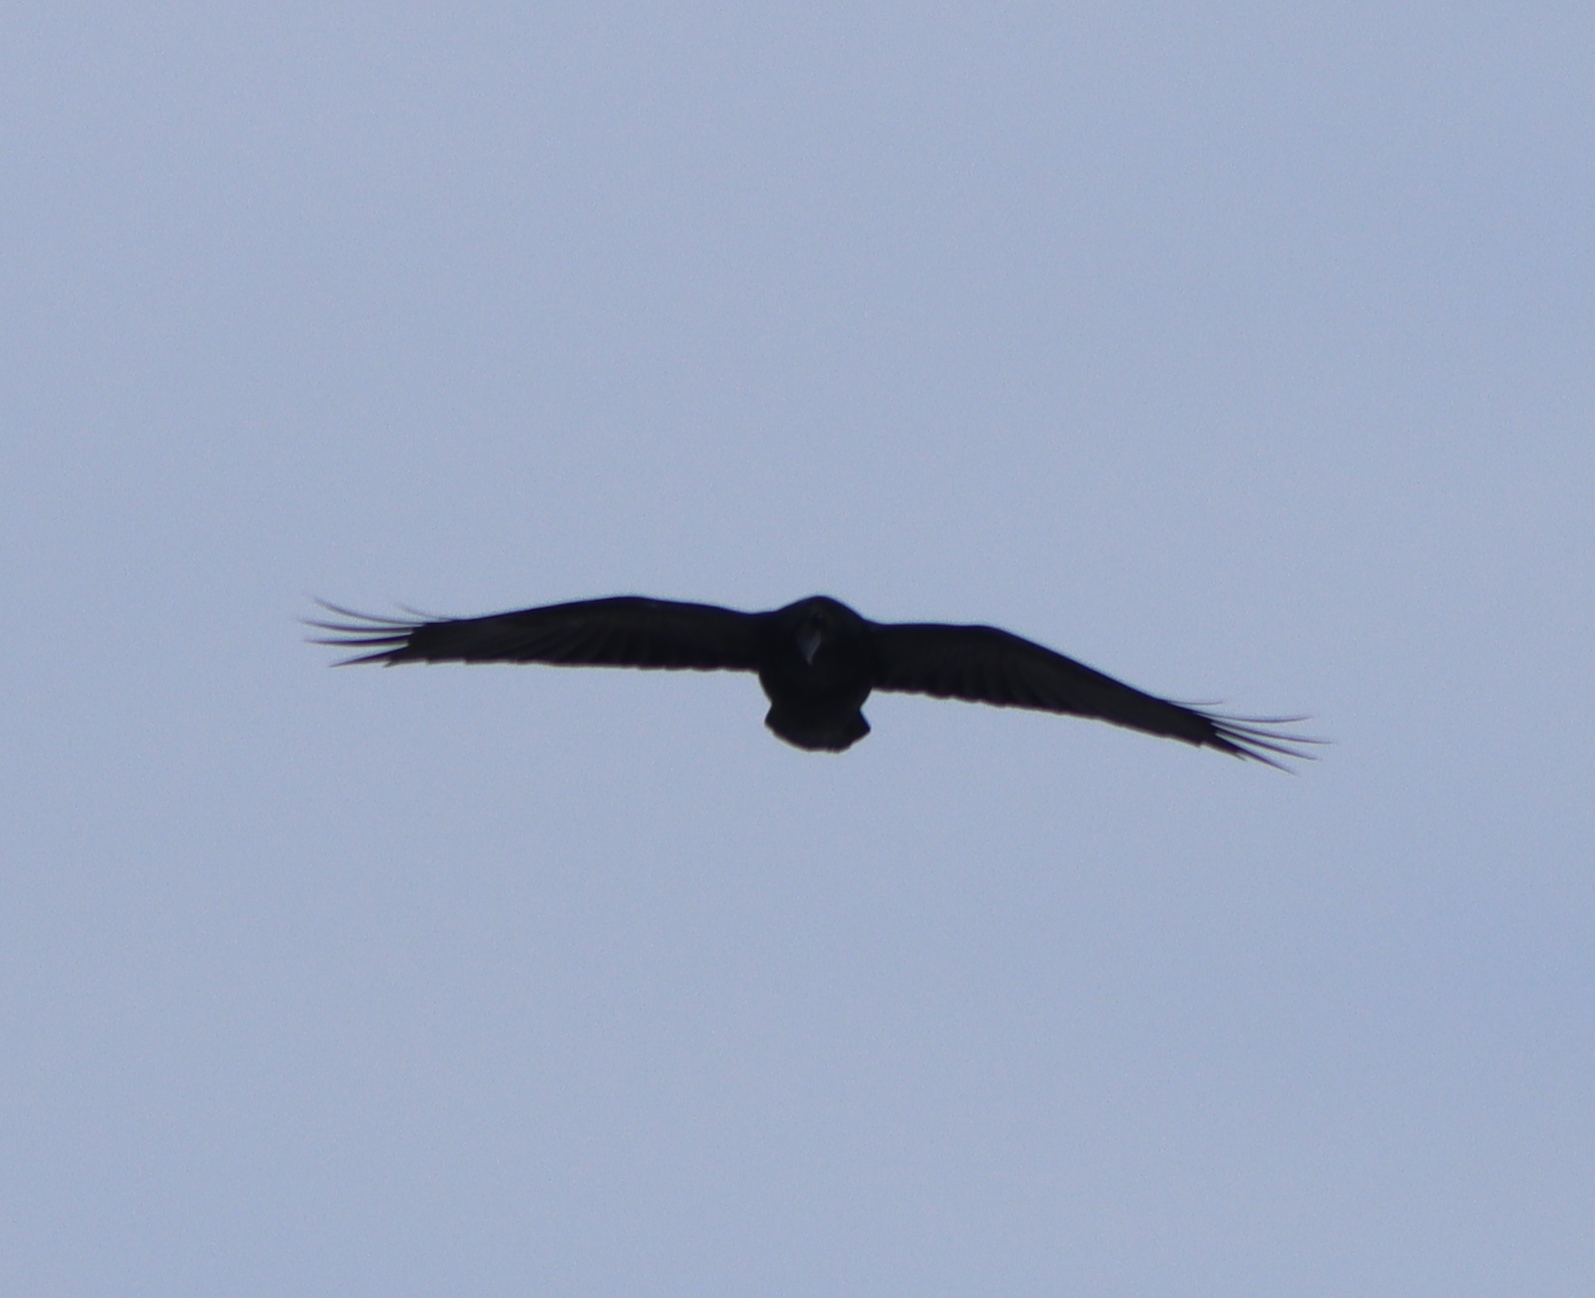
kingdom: Animalia
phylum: Chordata
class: Aves
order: Passeriformes
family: Corvidae
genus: Corvus
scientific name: Corvus corax
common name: Common raven
